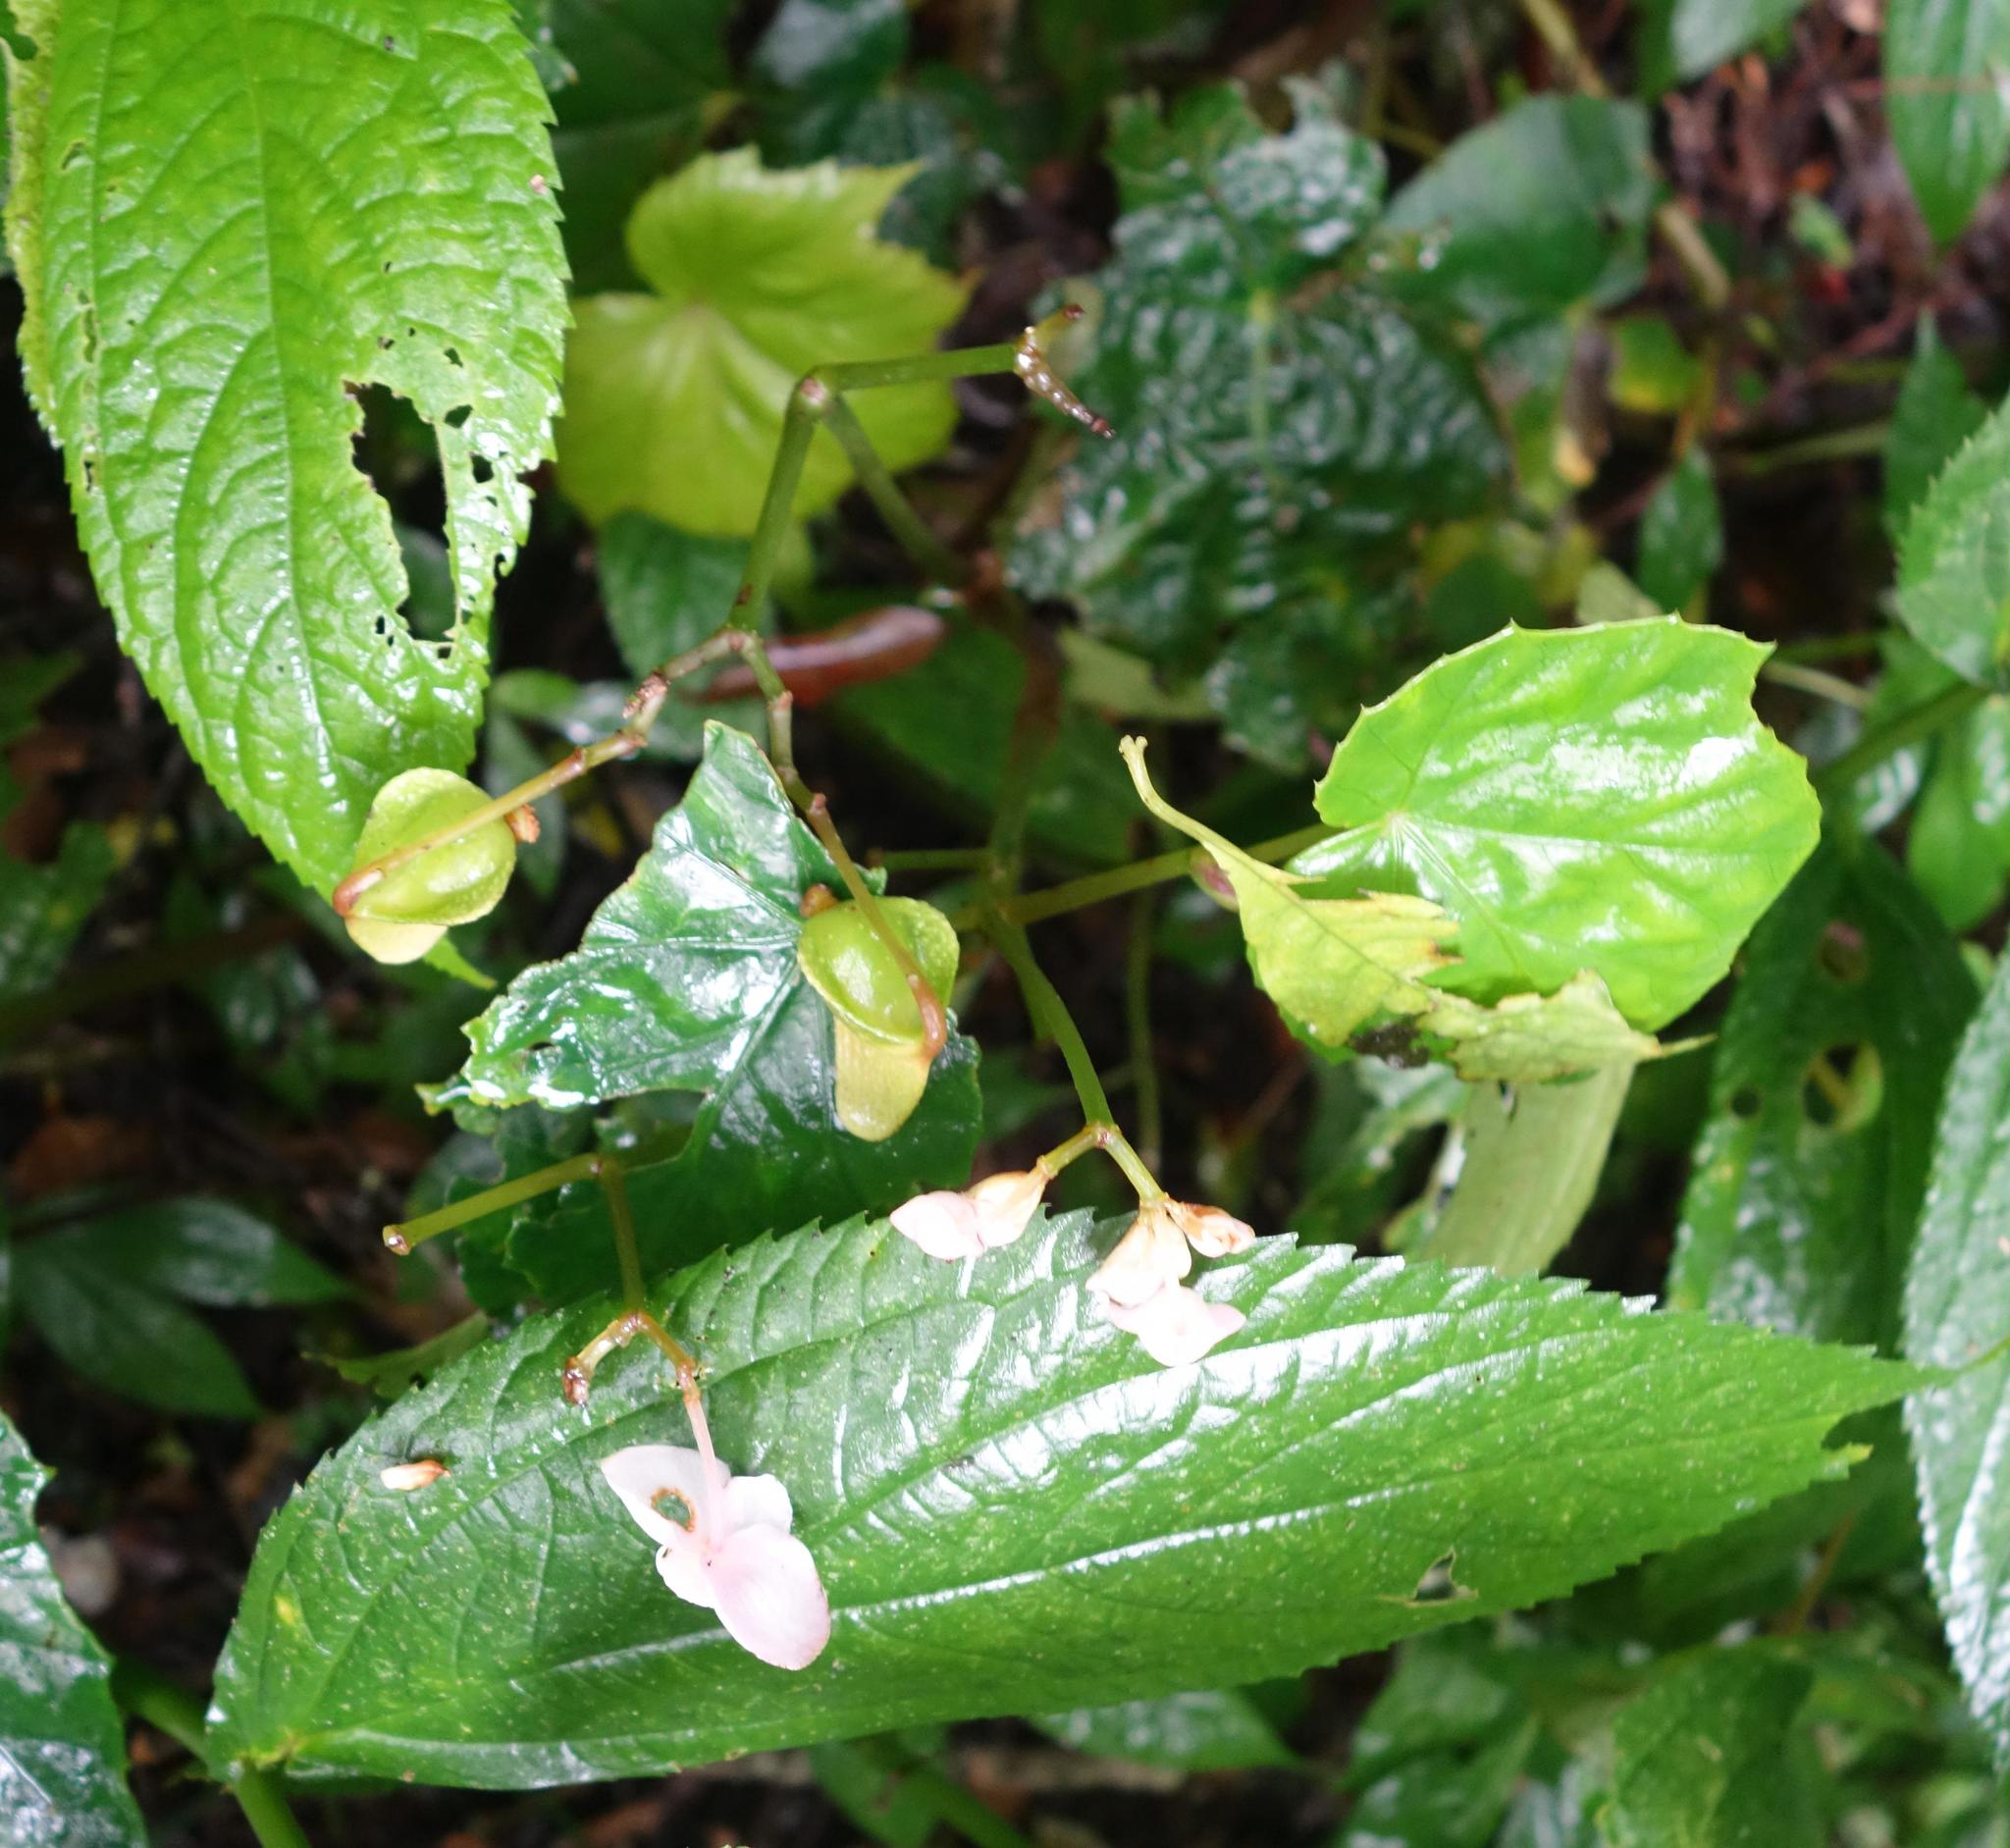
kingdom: Plantae
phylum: Tracheophyta
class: Magnoliopsida
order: Cucurbitales
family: Begoniaceae
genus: Begonia
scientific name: Begonia formosana
